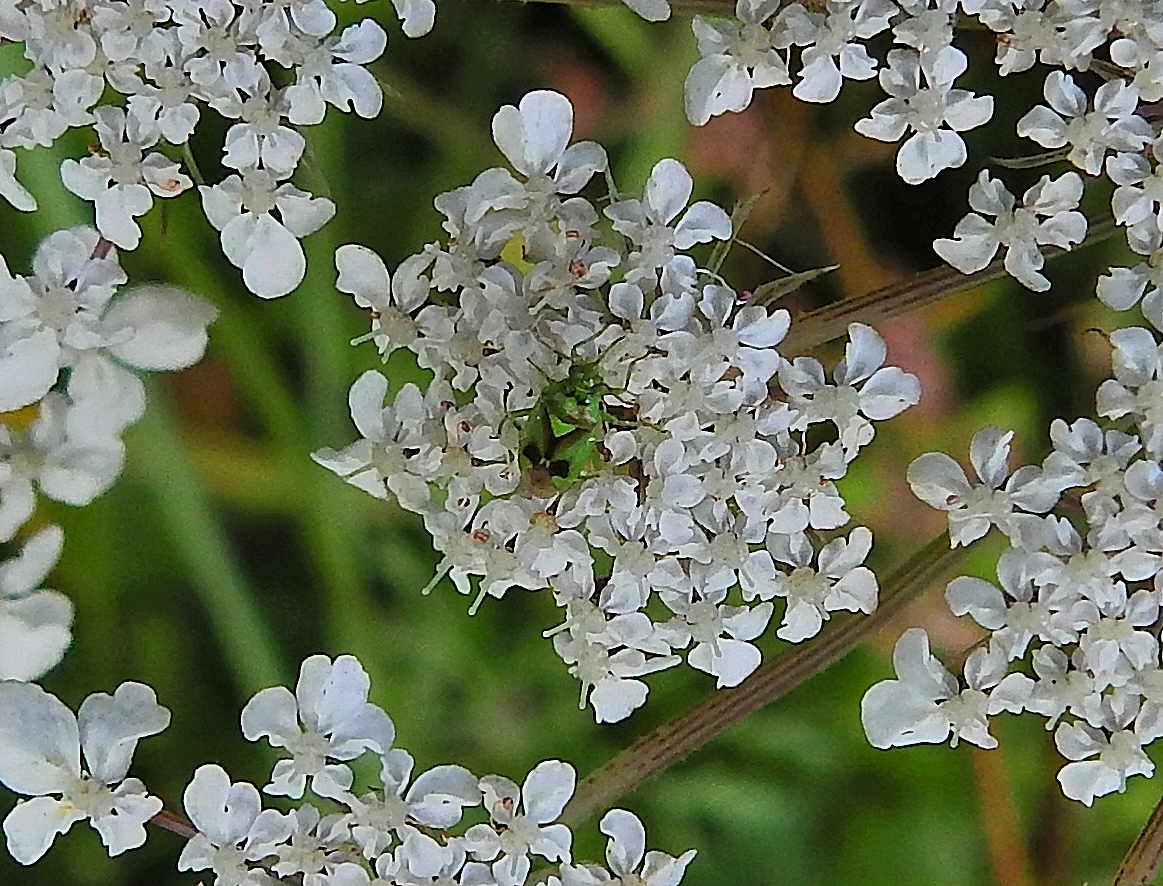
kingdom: Animalia
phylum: Arthropoda
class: Insecta
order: Hemiptera
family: Miridae
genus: Orthops
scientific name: Orthops campestris
